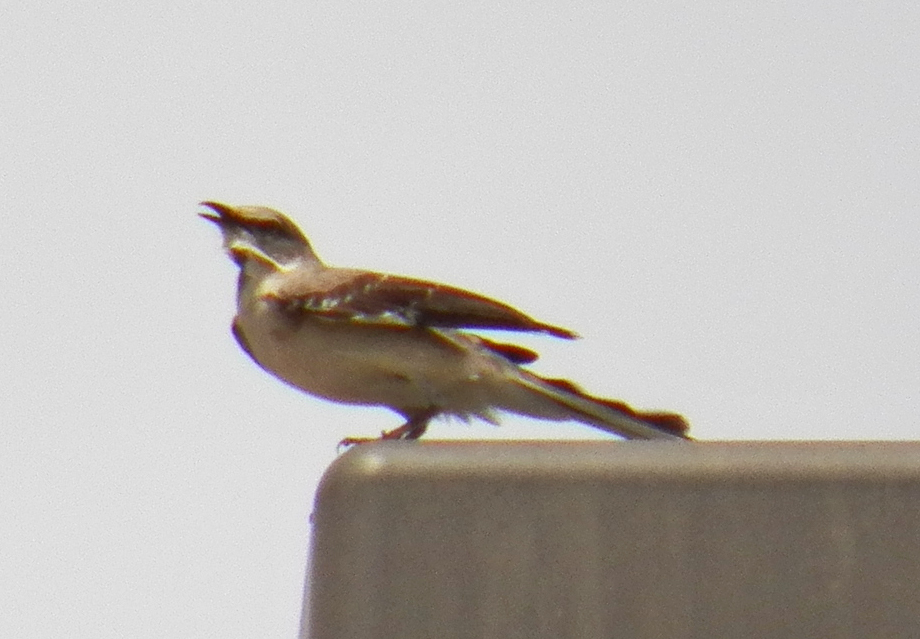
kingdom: Animalia
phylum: Chordata
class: Aves
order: Passeriformes
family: Mimidae
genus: Mimus
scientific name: Mimus polyglottos
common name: Northern mockingbird
